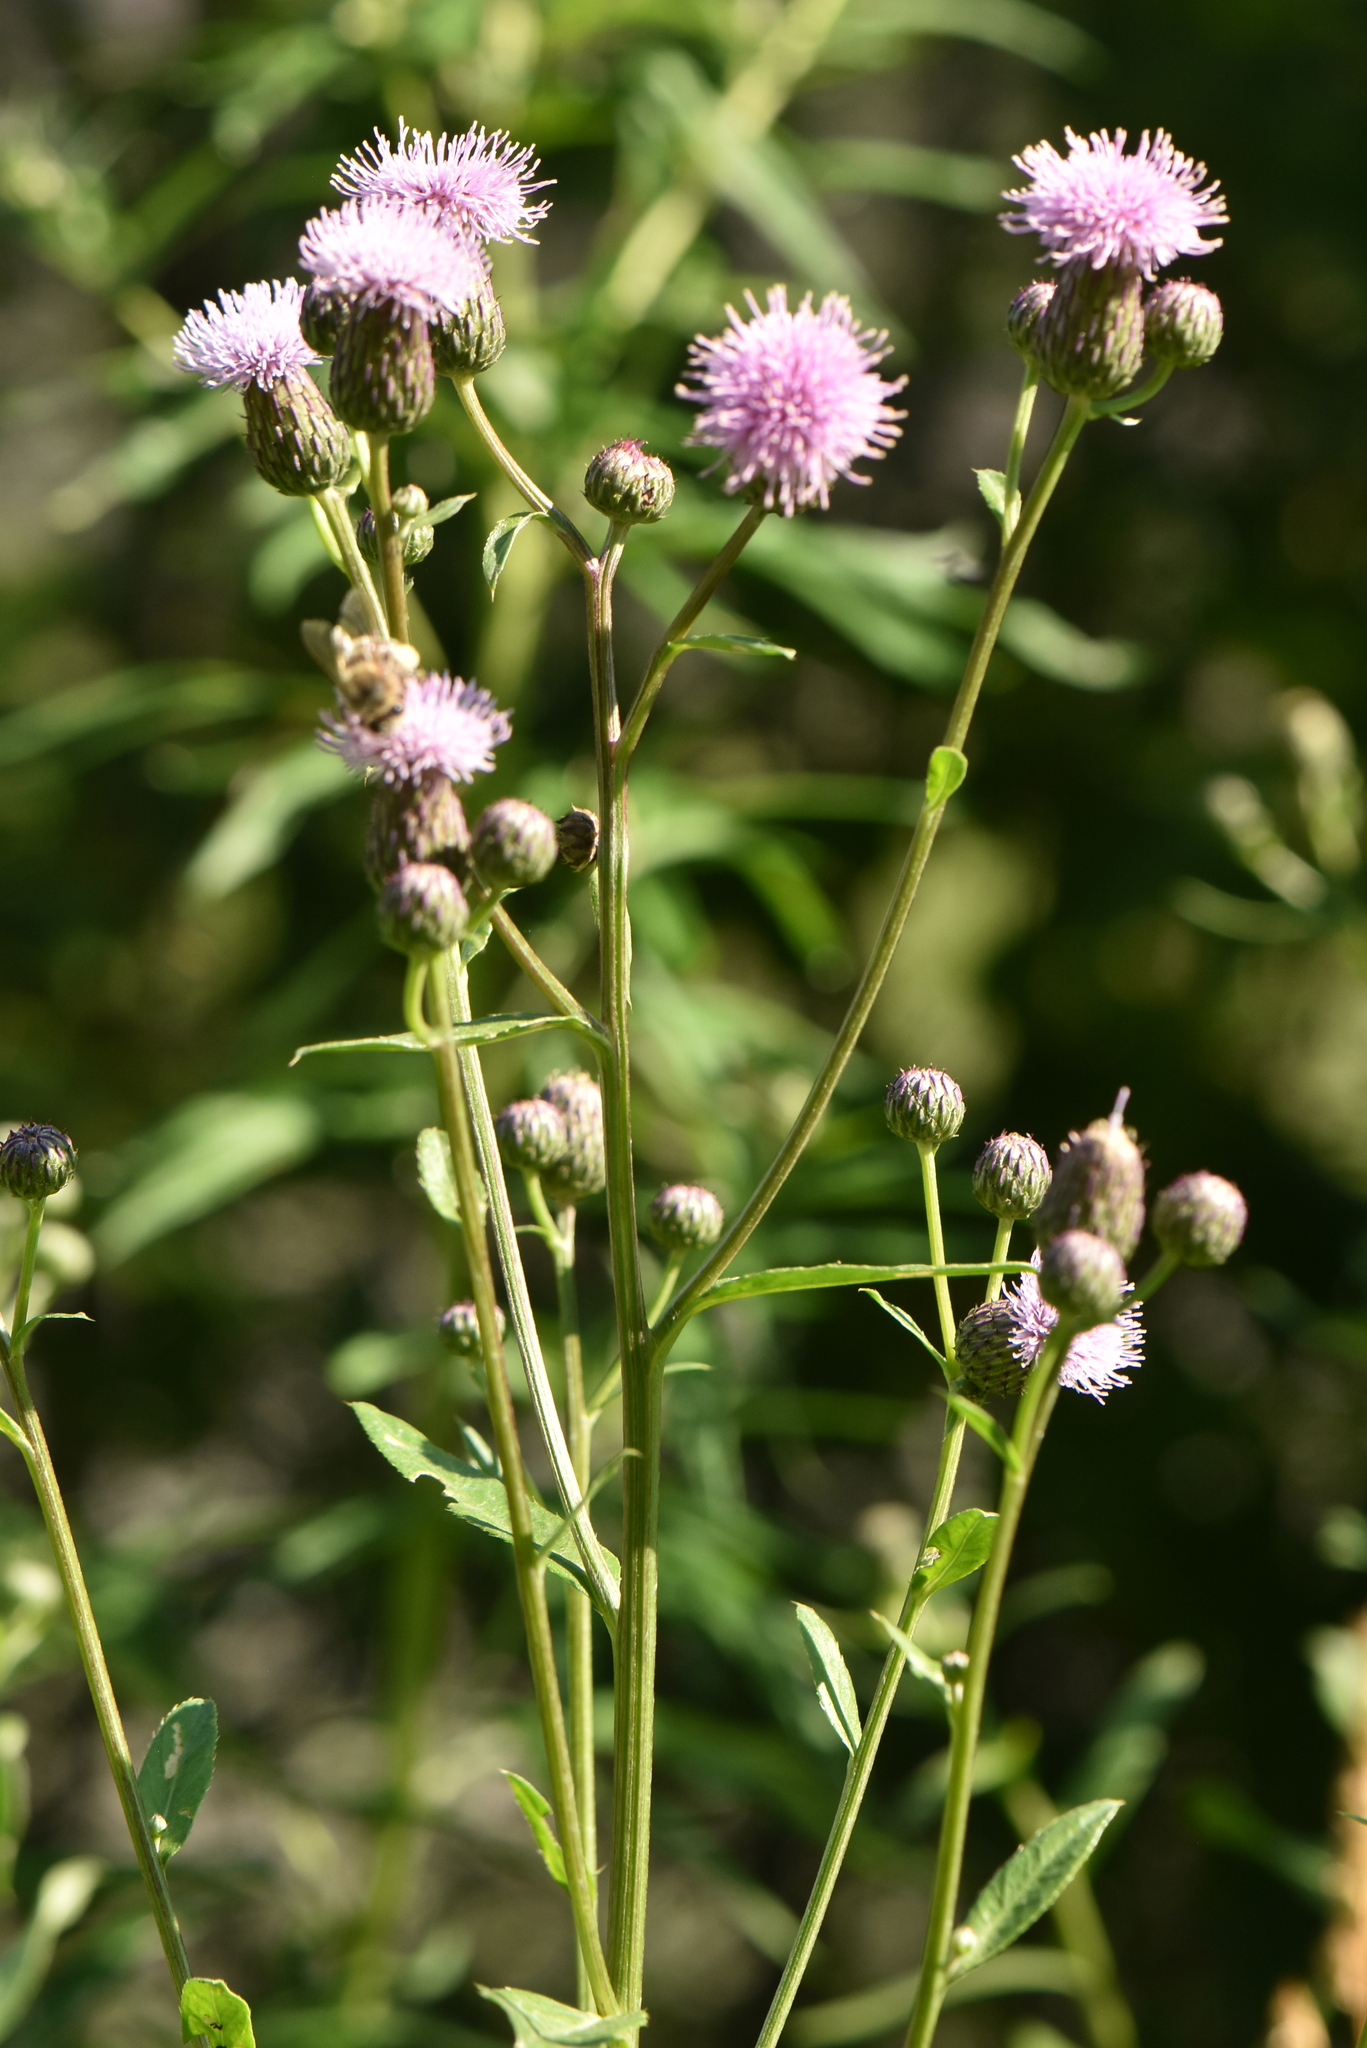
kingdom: Plantae
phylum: Tracheophyta
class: Magnoliopsida
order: Asterales
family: Asteraceae
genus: Cirsium
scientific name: Cirsium arvense
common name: Creeping thistle
